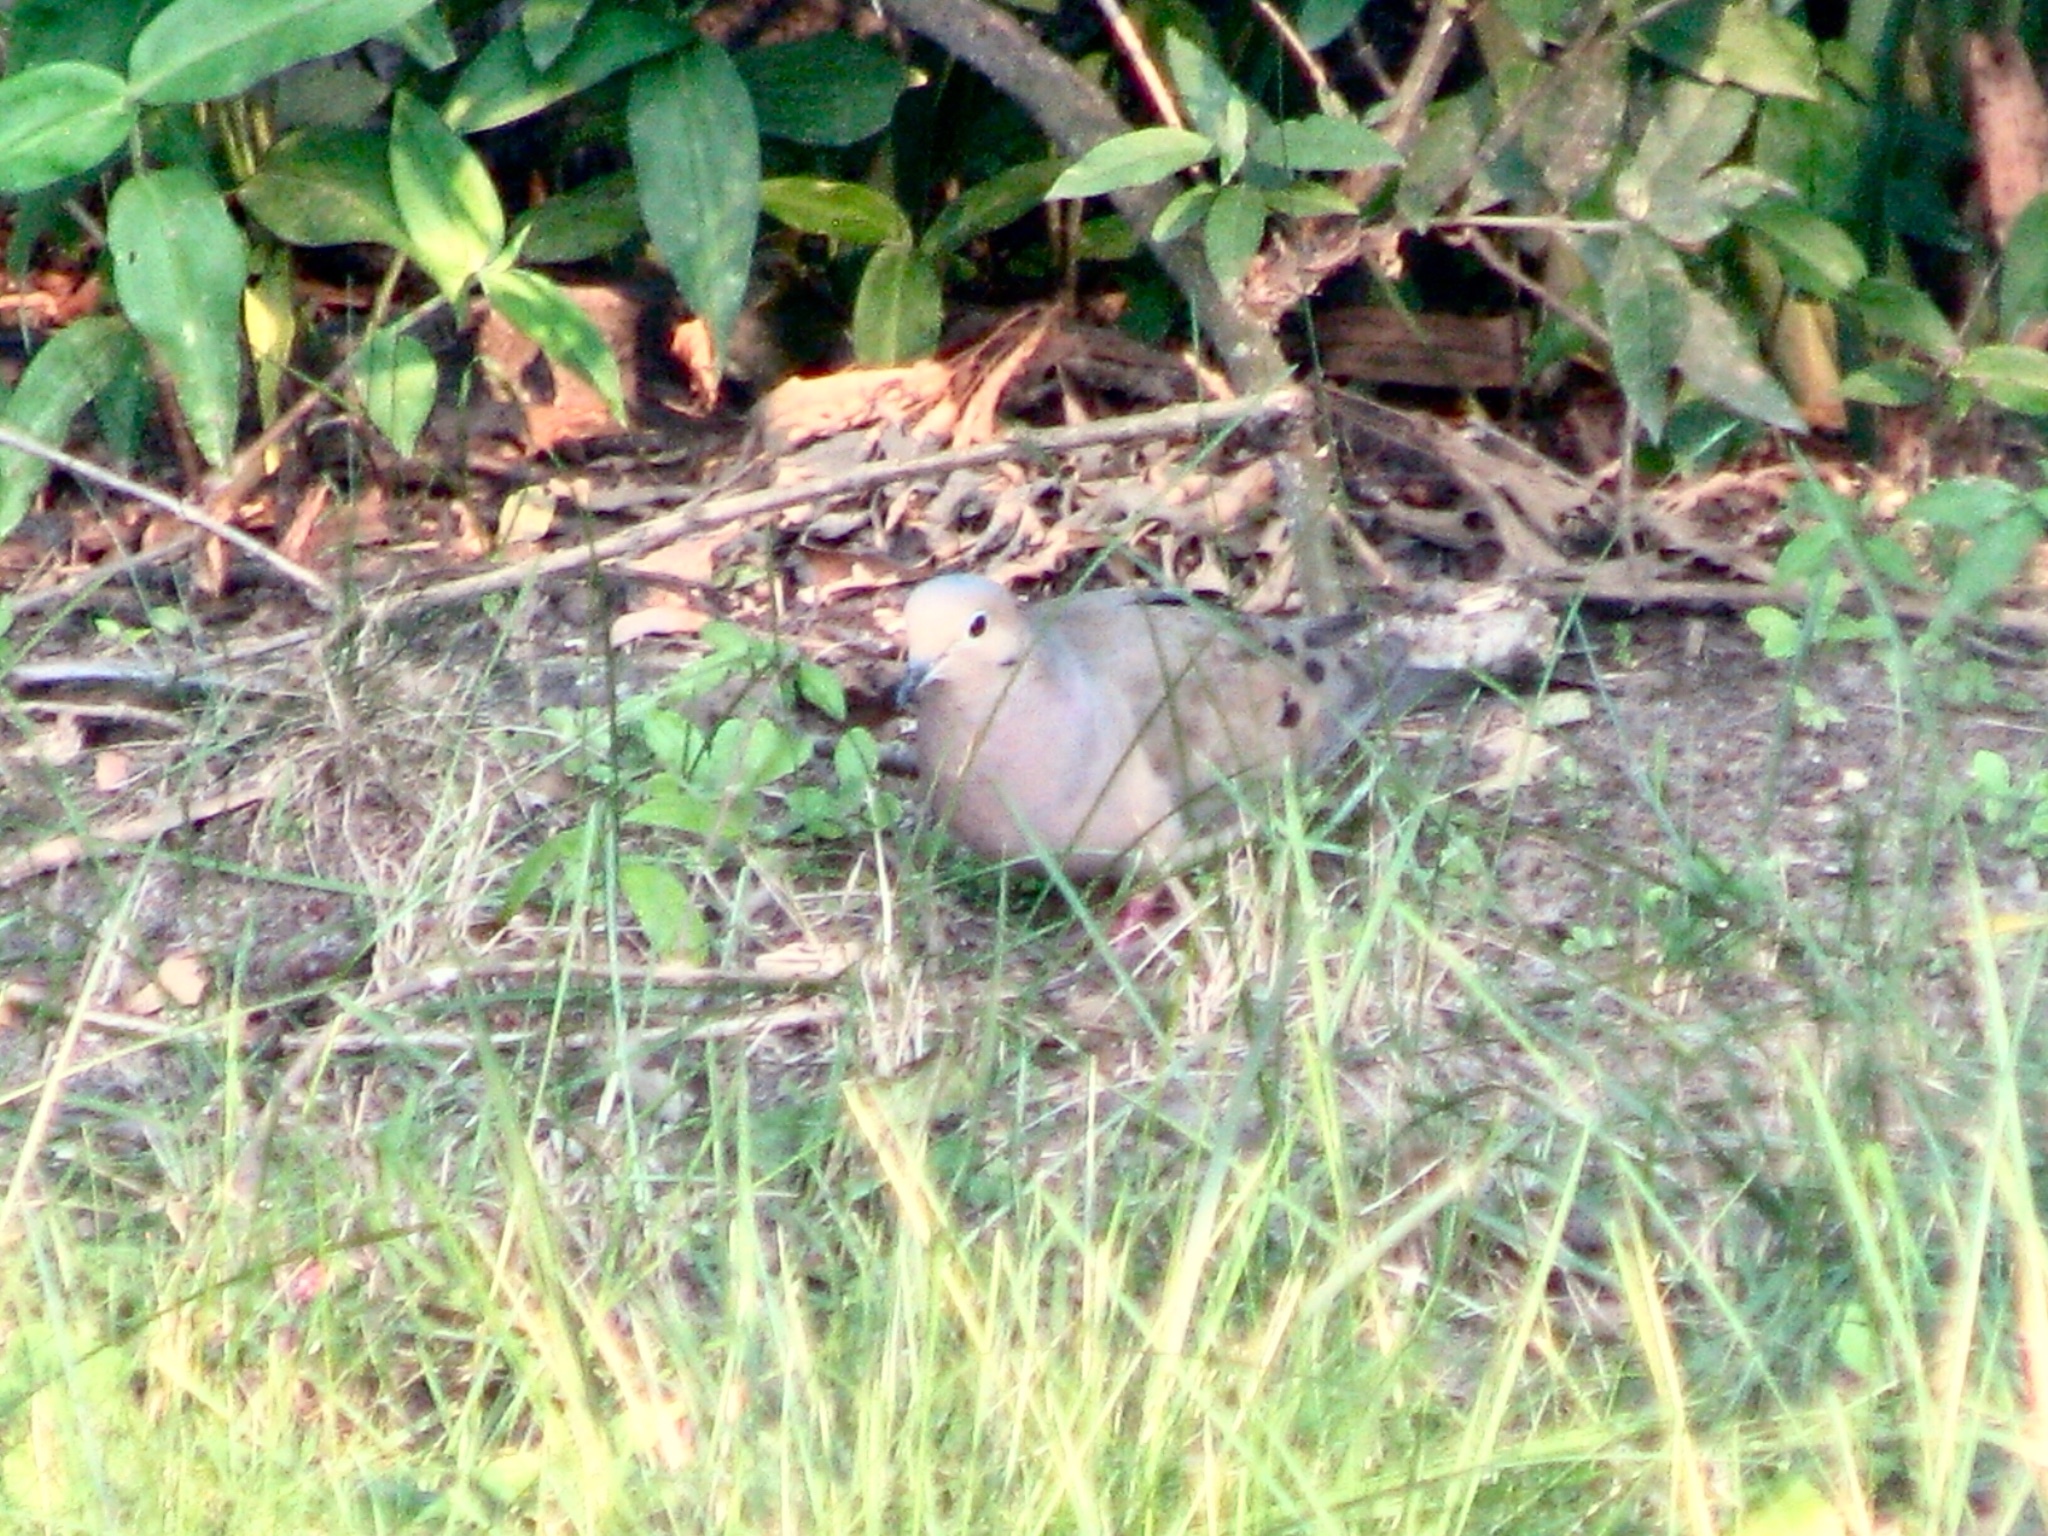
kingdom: Animalia
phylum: Chordata
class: Aves
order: Columbiformes
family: Columbidae
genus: Zenaida
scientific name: Zenaida macroura
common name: Mourning dove
